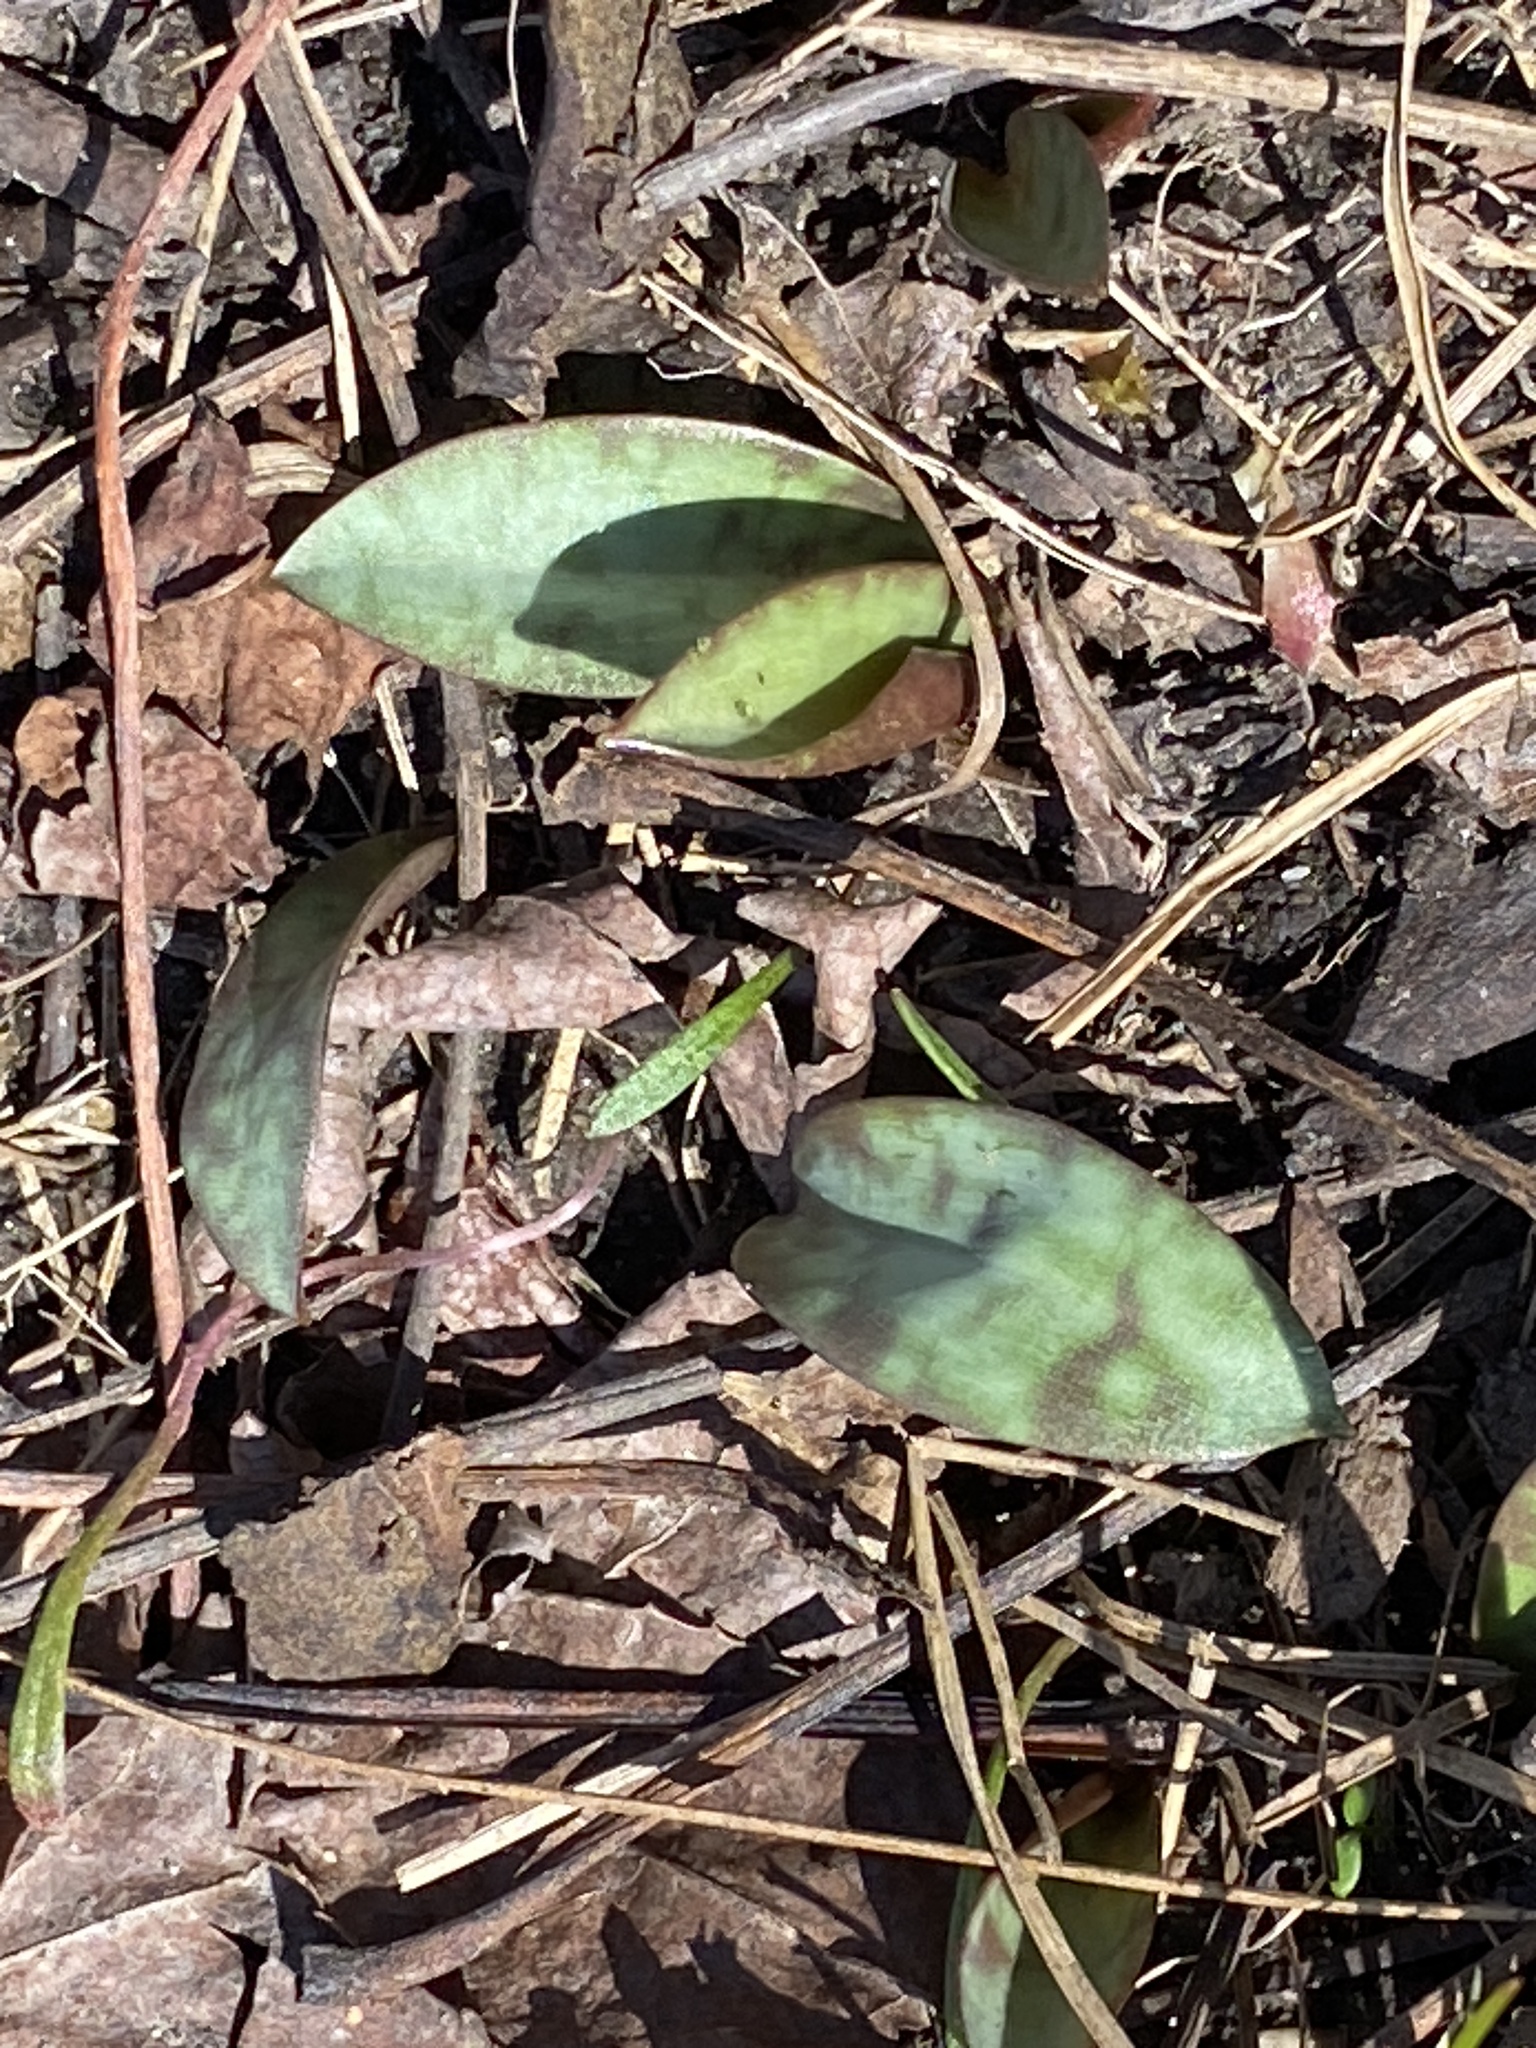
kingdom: Plantae
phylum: Tracheophyta
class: Liliopsida
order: Liliales
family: Liliaceae
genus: Erythronium
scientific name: Erythronium americanum
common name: Yellow adder's-tongue
